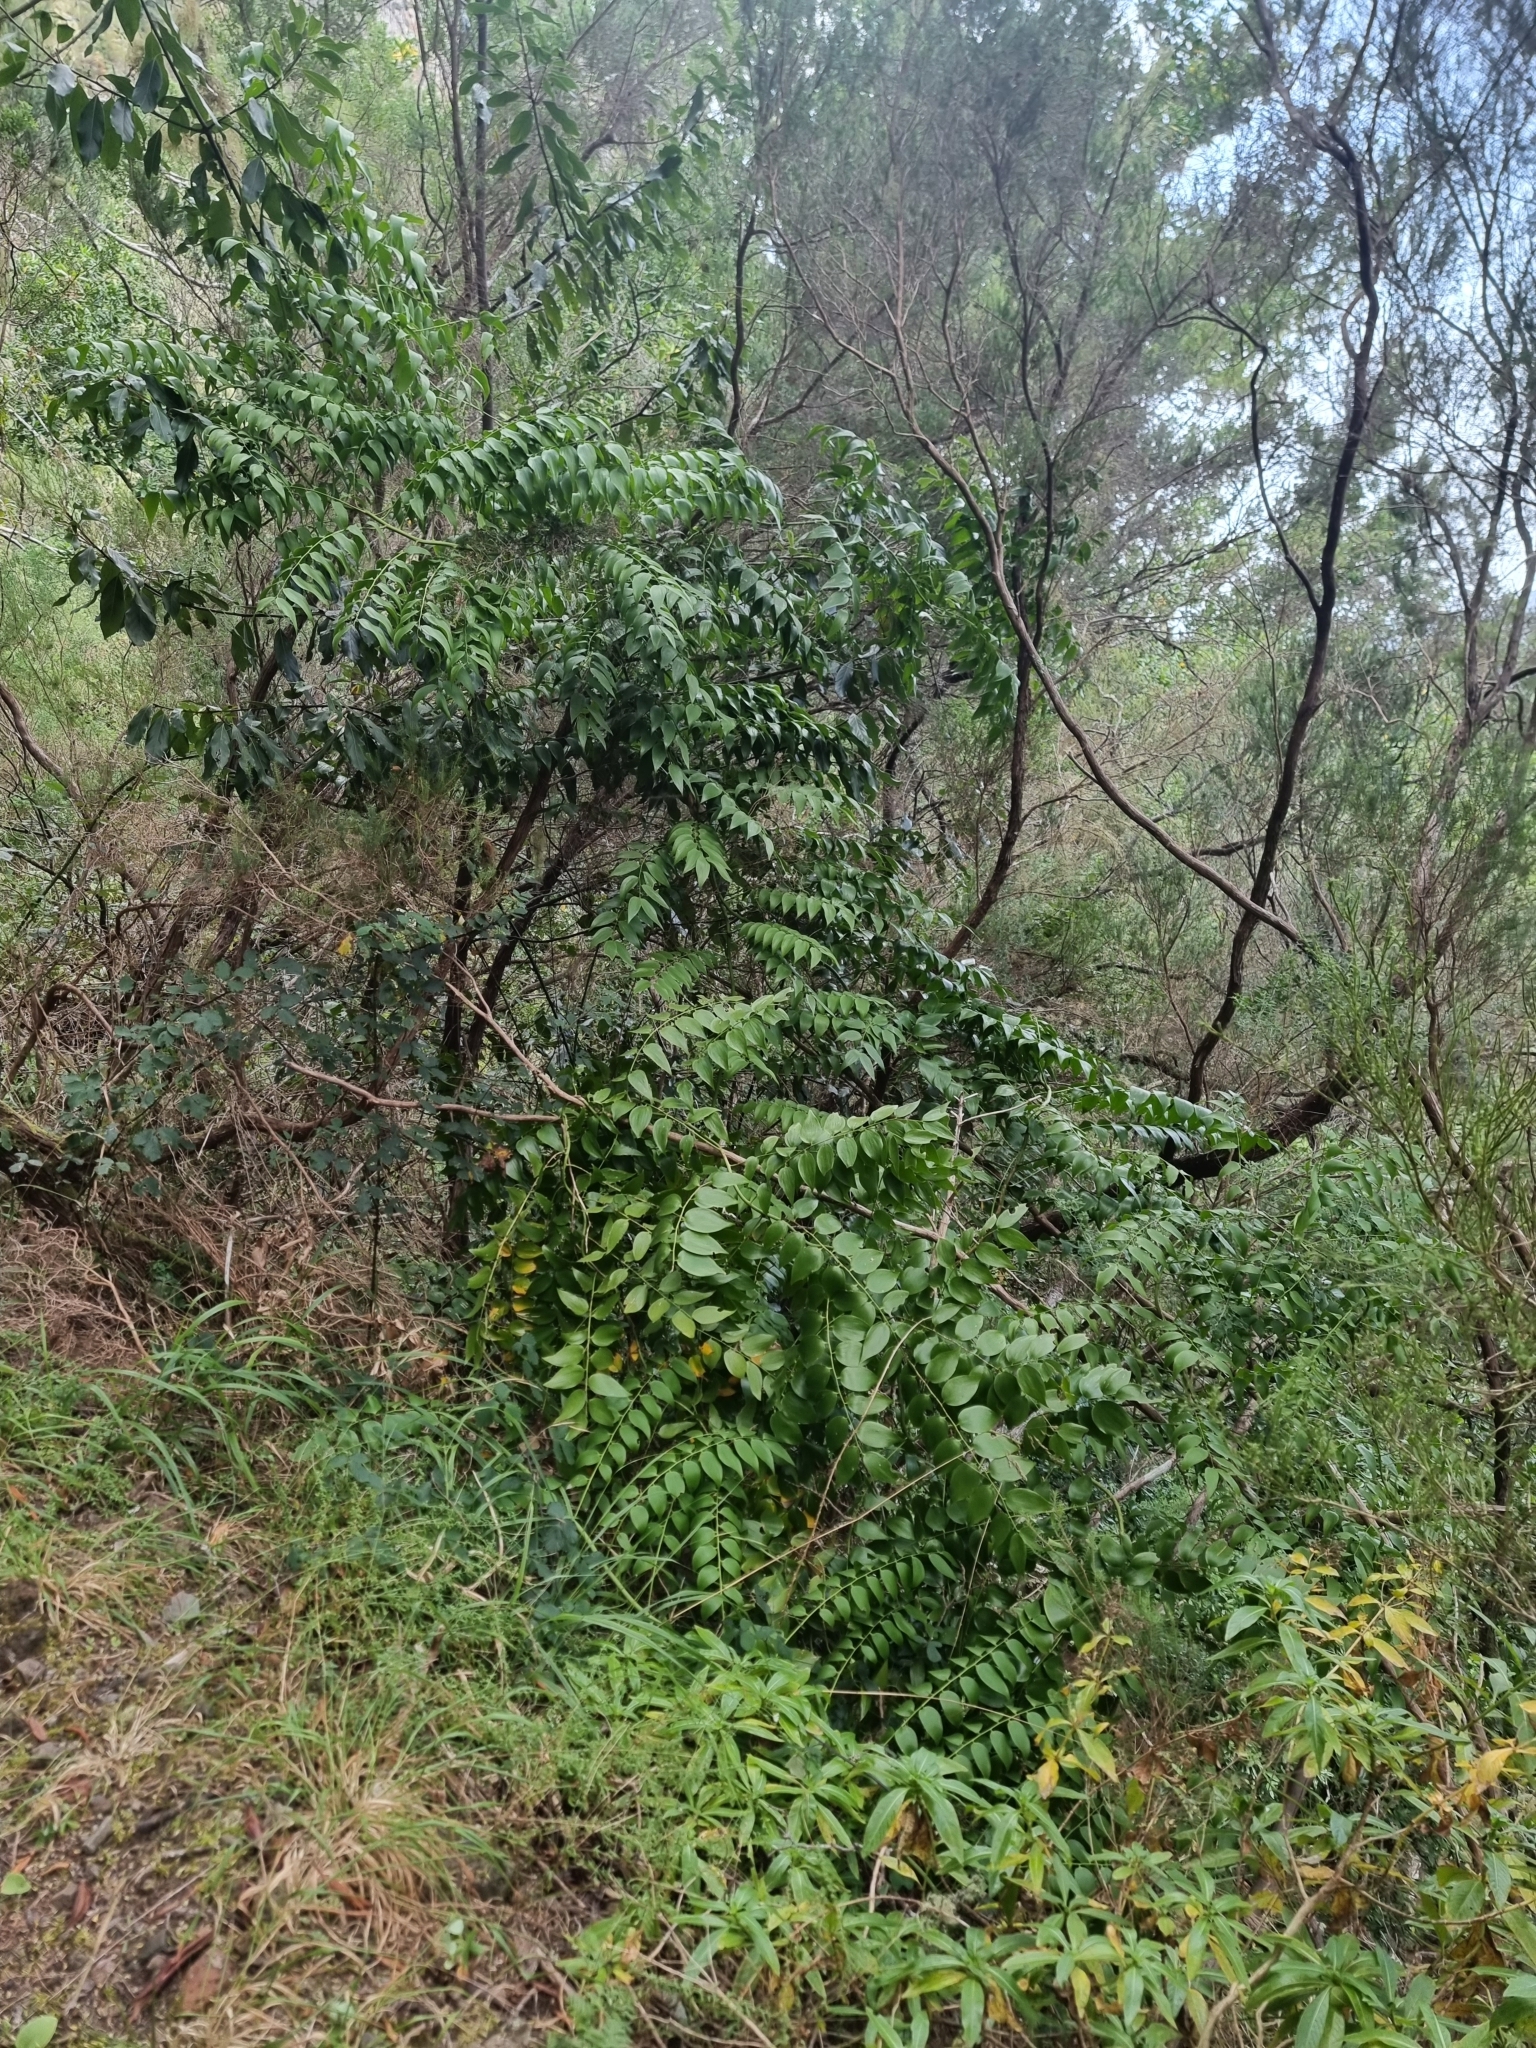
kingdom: Plantae
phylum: Tracheophyta
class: Liliopsida
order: Asparagales
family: Asparagaceae
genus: Semele
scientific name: Semele androgyna
